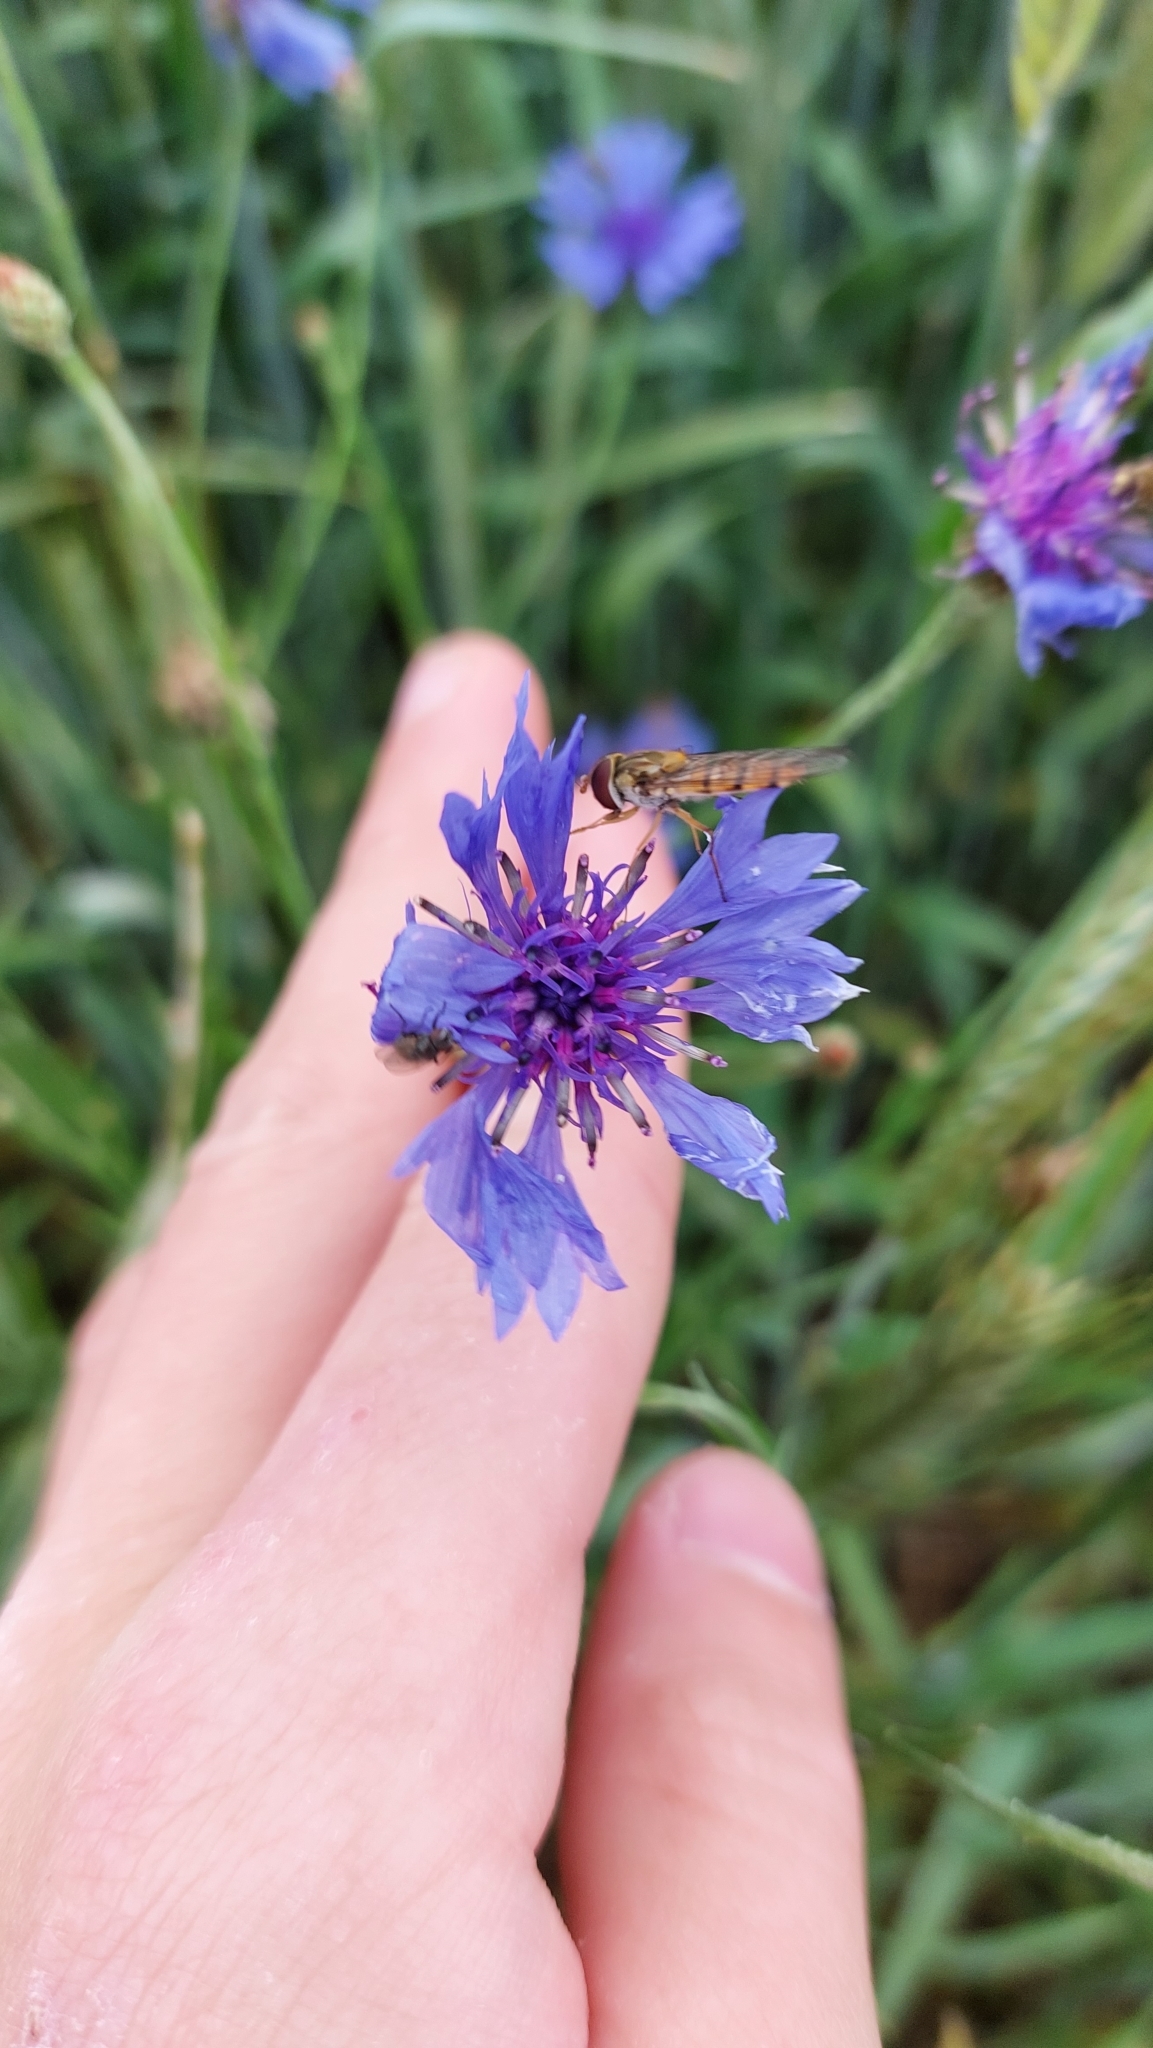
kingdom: Plantae
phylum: Tracheophyta
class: Magnoliopsida
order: Asterales
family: Asteraceae
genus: Centaurea
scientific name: Centaurea cyanus
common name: Cornflower
